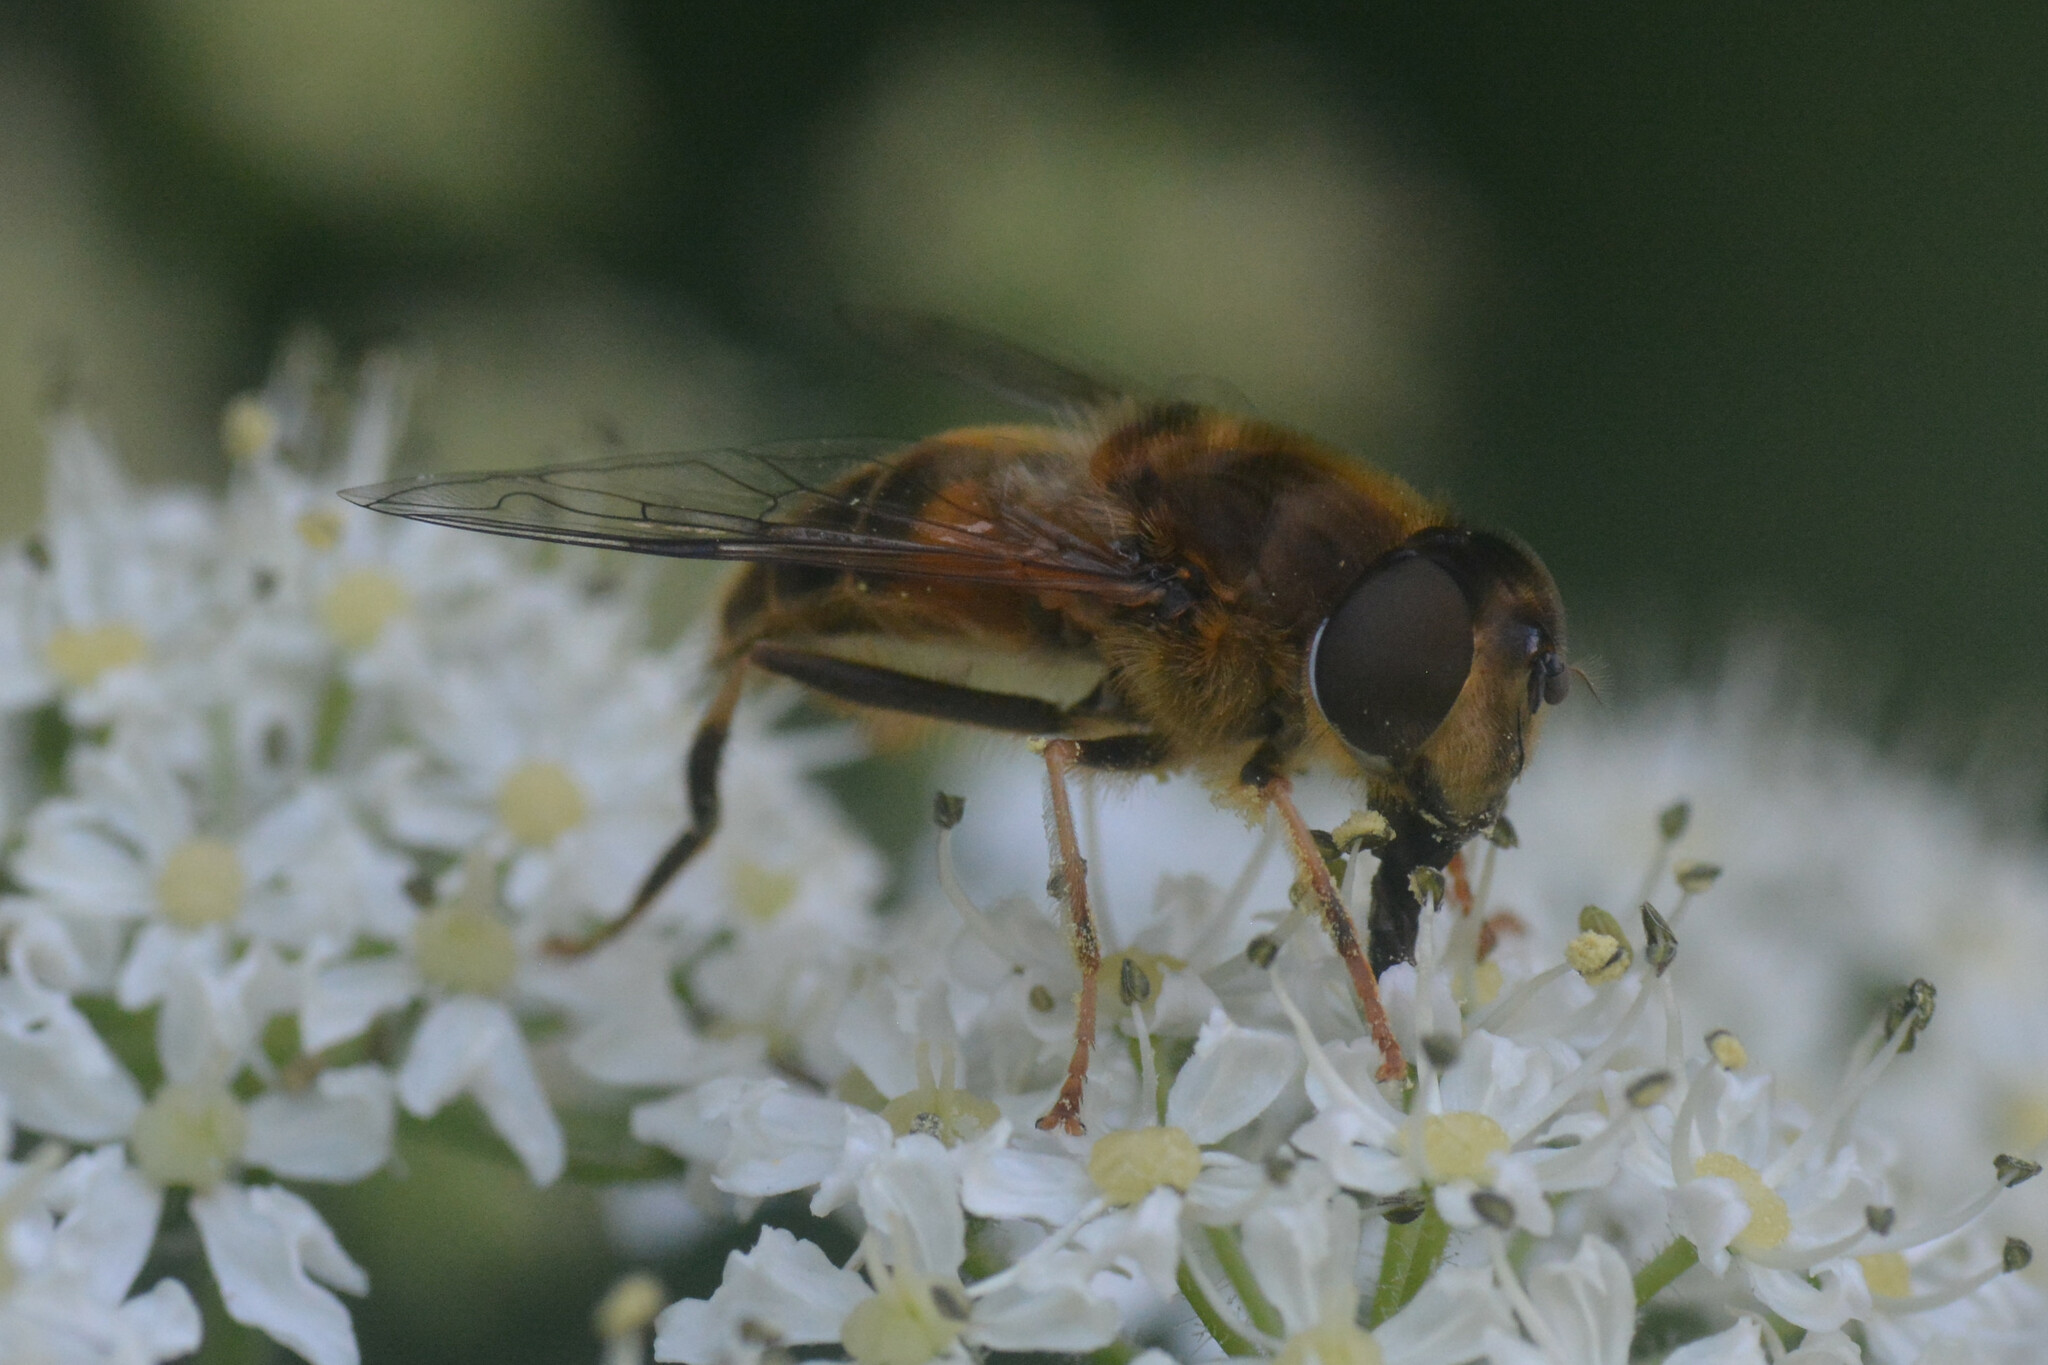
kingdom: Animalia
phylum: Arthropoda
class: Insecta
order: Diptera
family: Syrphidae
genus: Eristalis
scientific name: Eristalis pertinax
